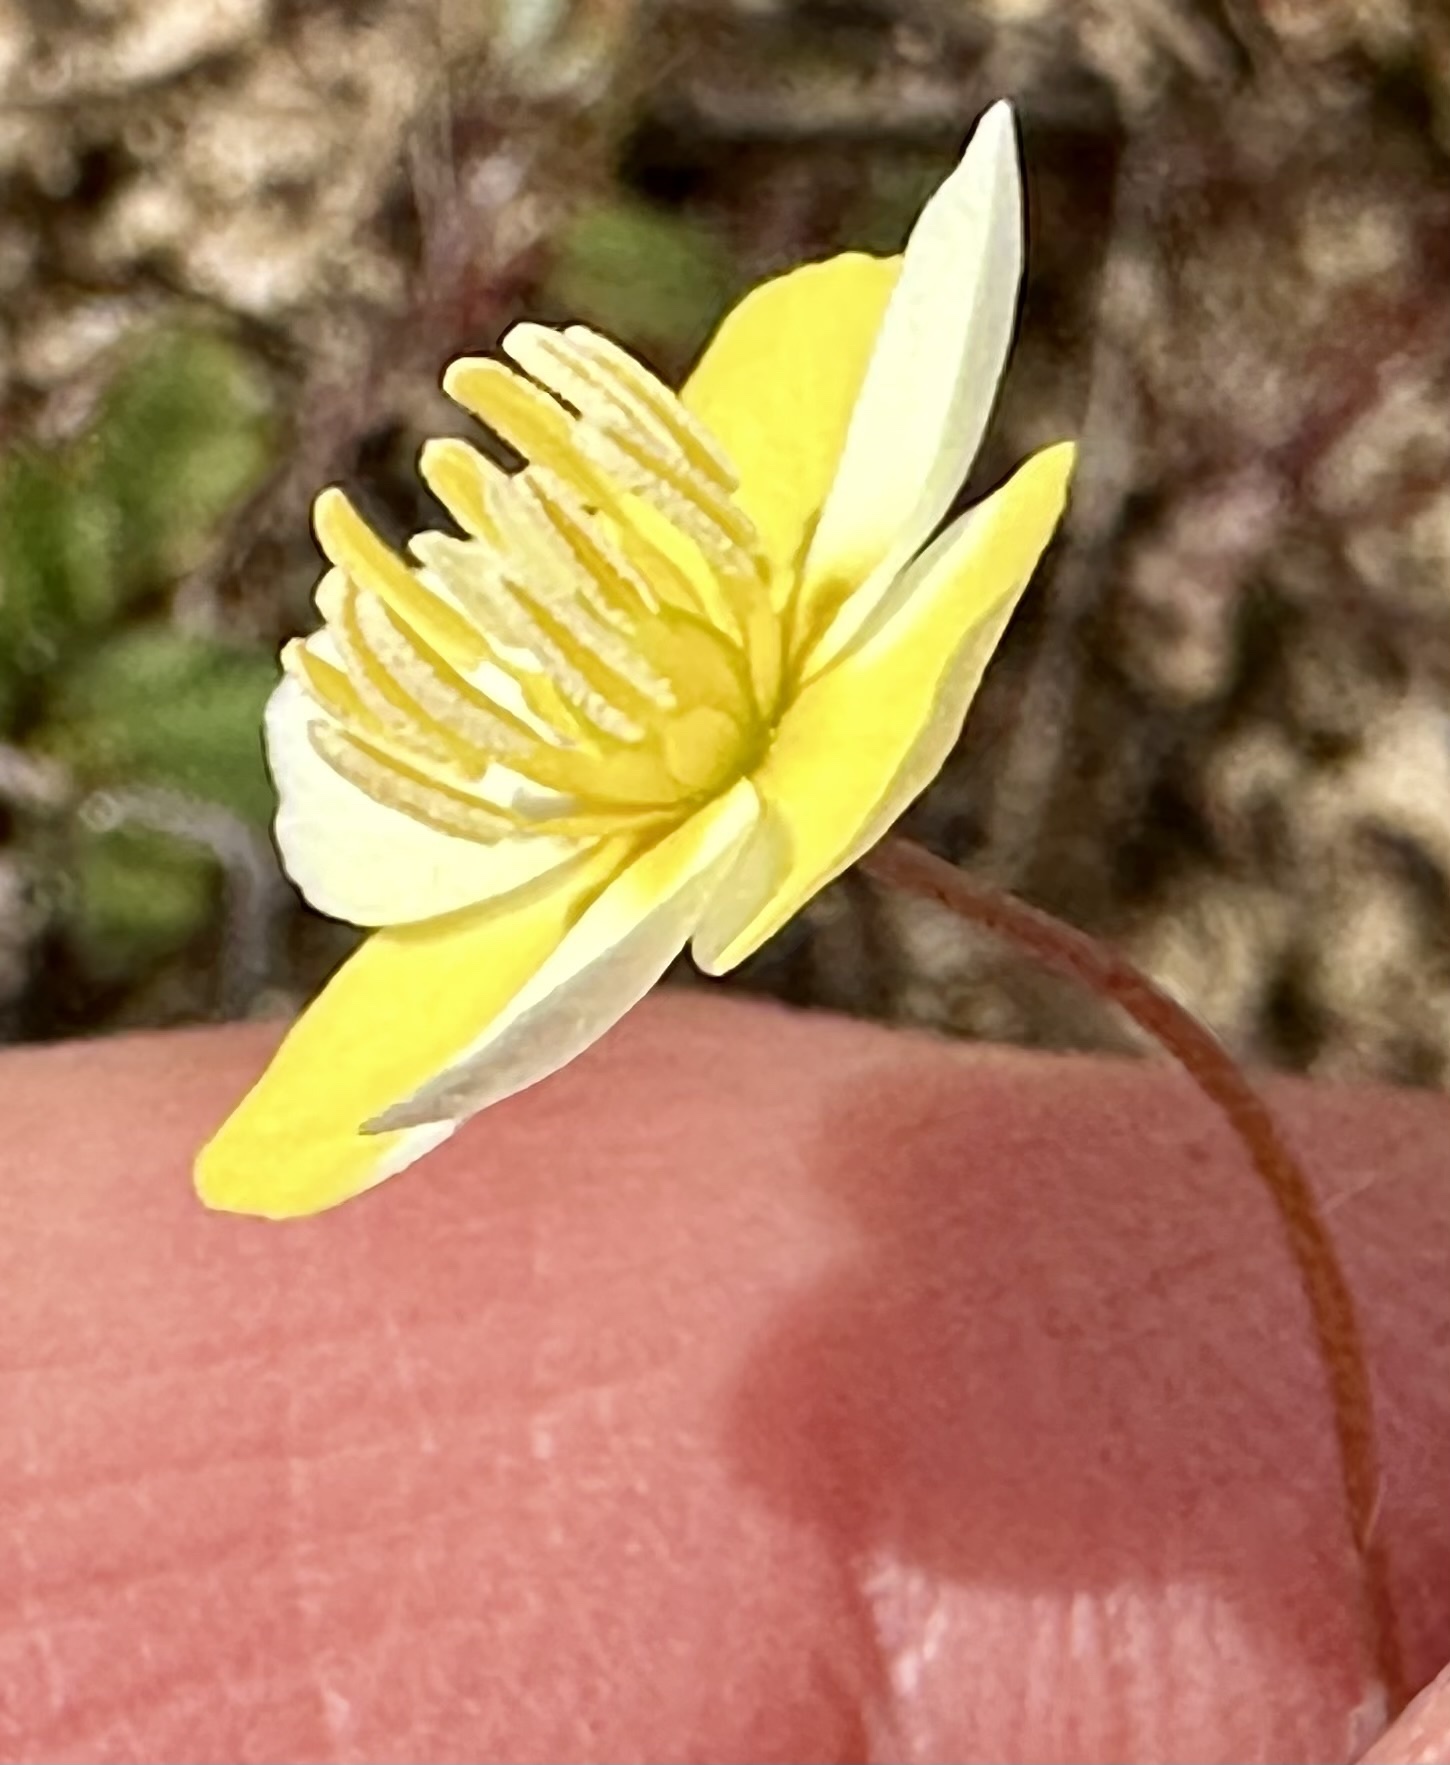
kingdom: Plantae
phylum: Tracheophyta
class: Magnoliopsida
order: Ranunculales
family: Papaveraceae
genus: Platystigma
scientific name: Platystigma lineare
